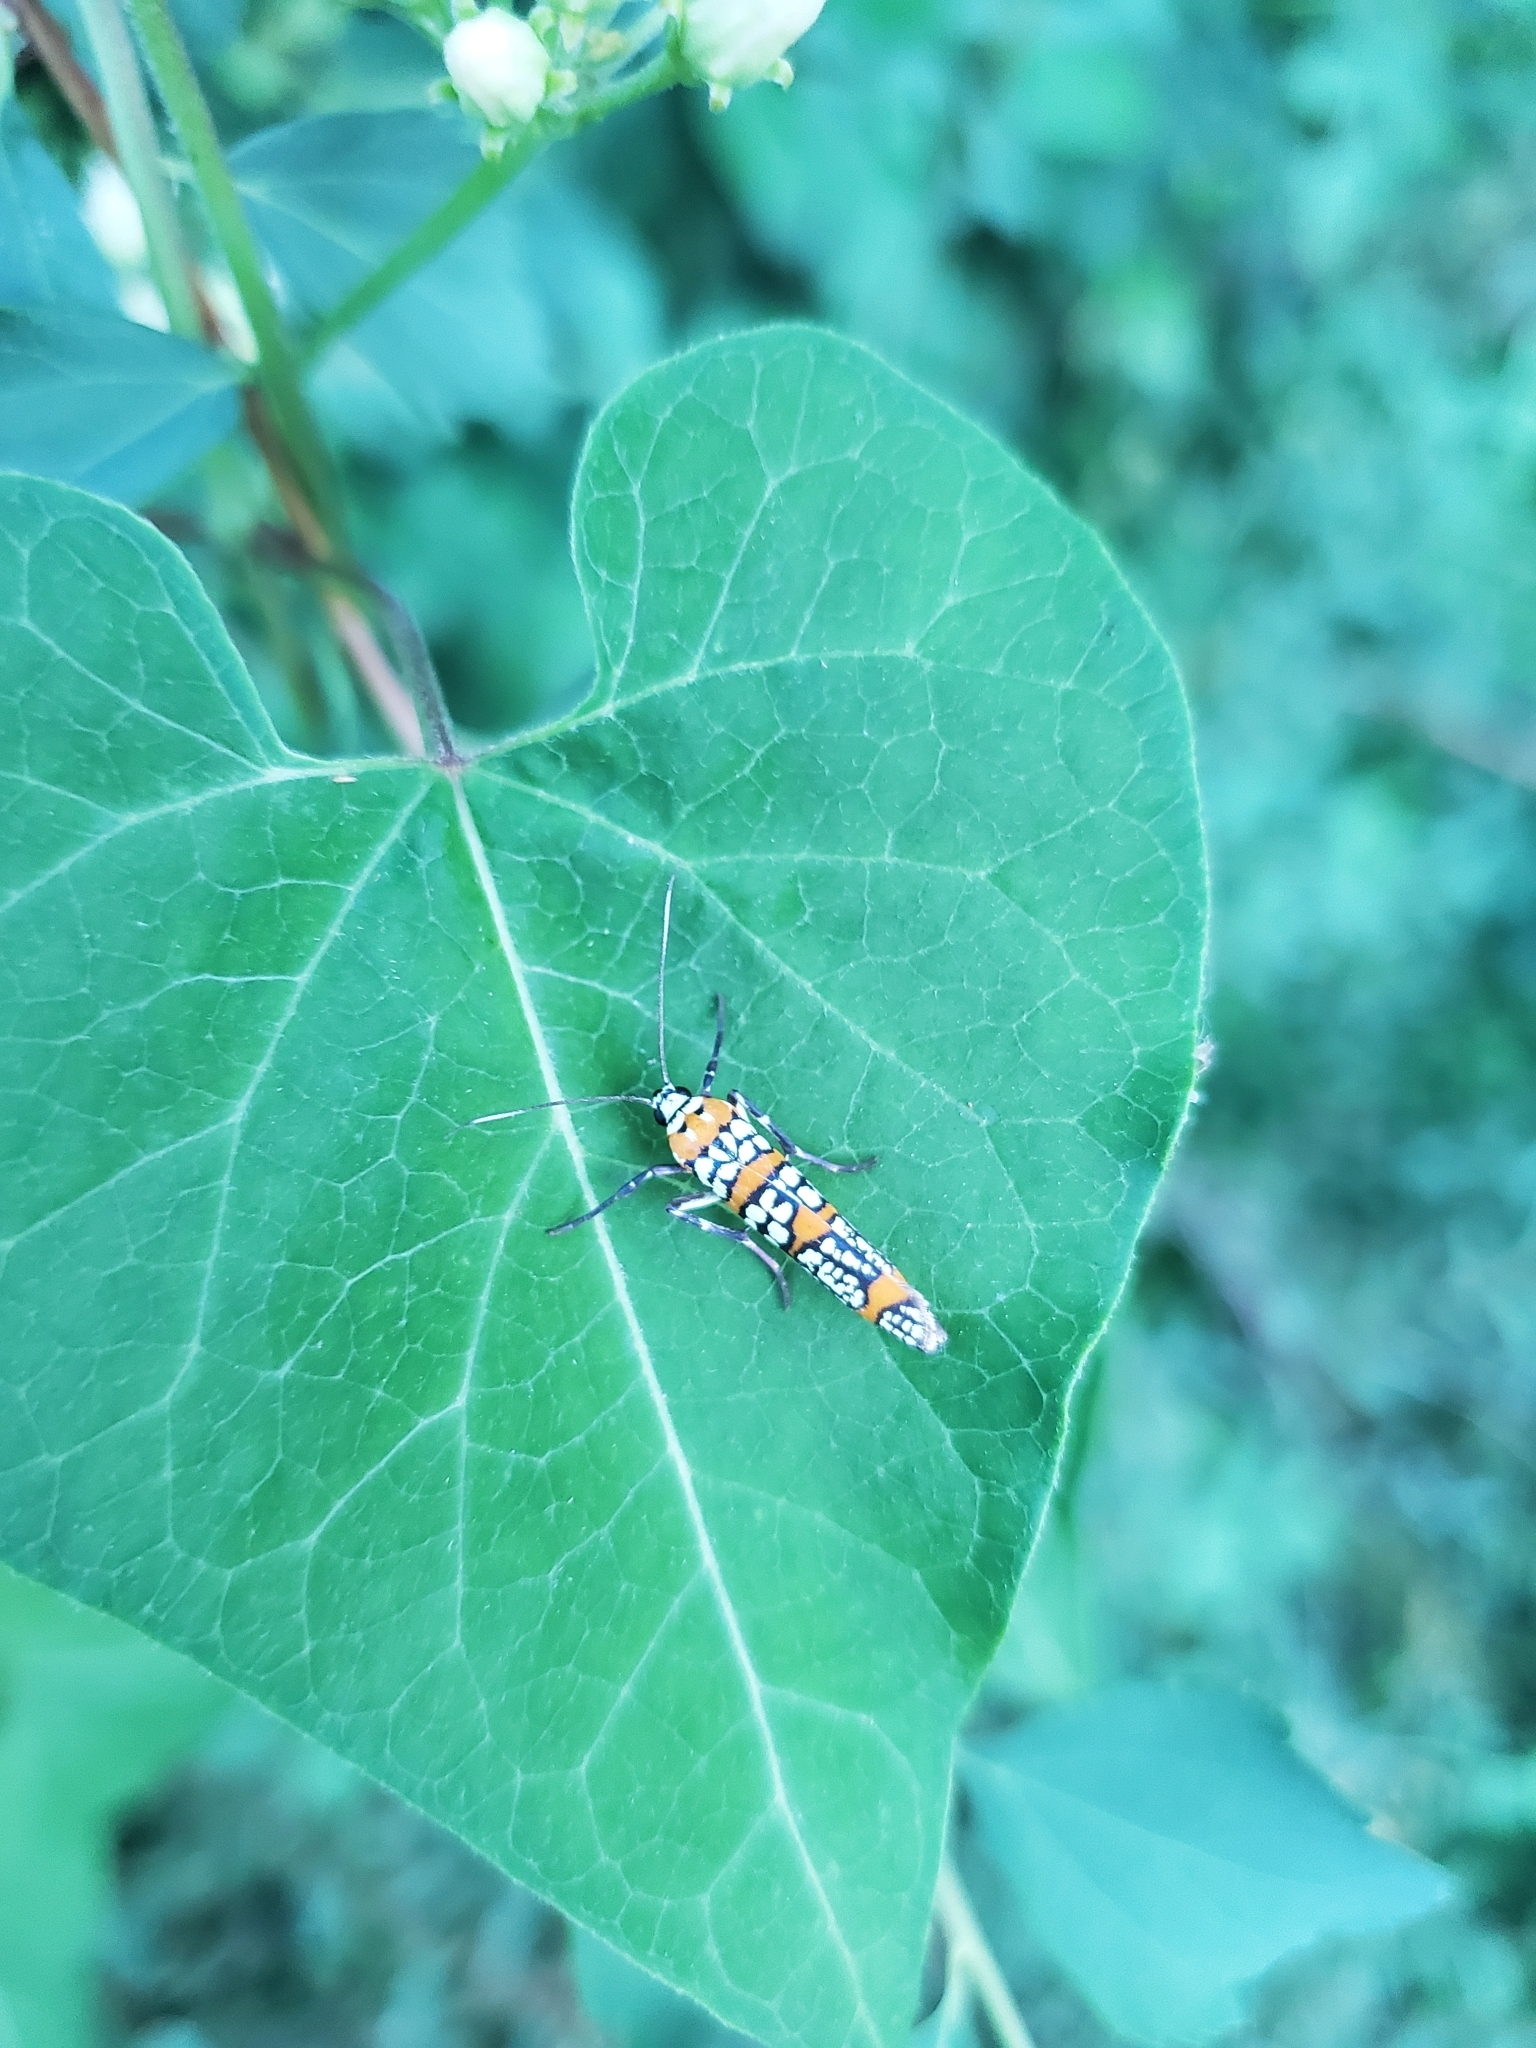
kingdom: Animalia
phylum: Arthropoda
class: Insecta
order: Lepidoptera
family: Attevidae
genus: Atteva
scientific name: Atteva punctella
